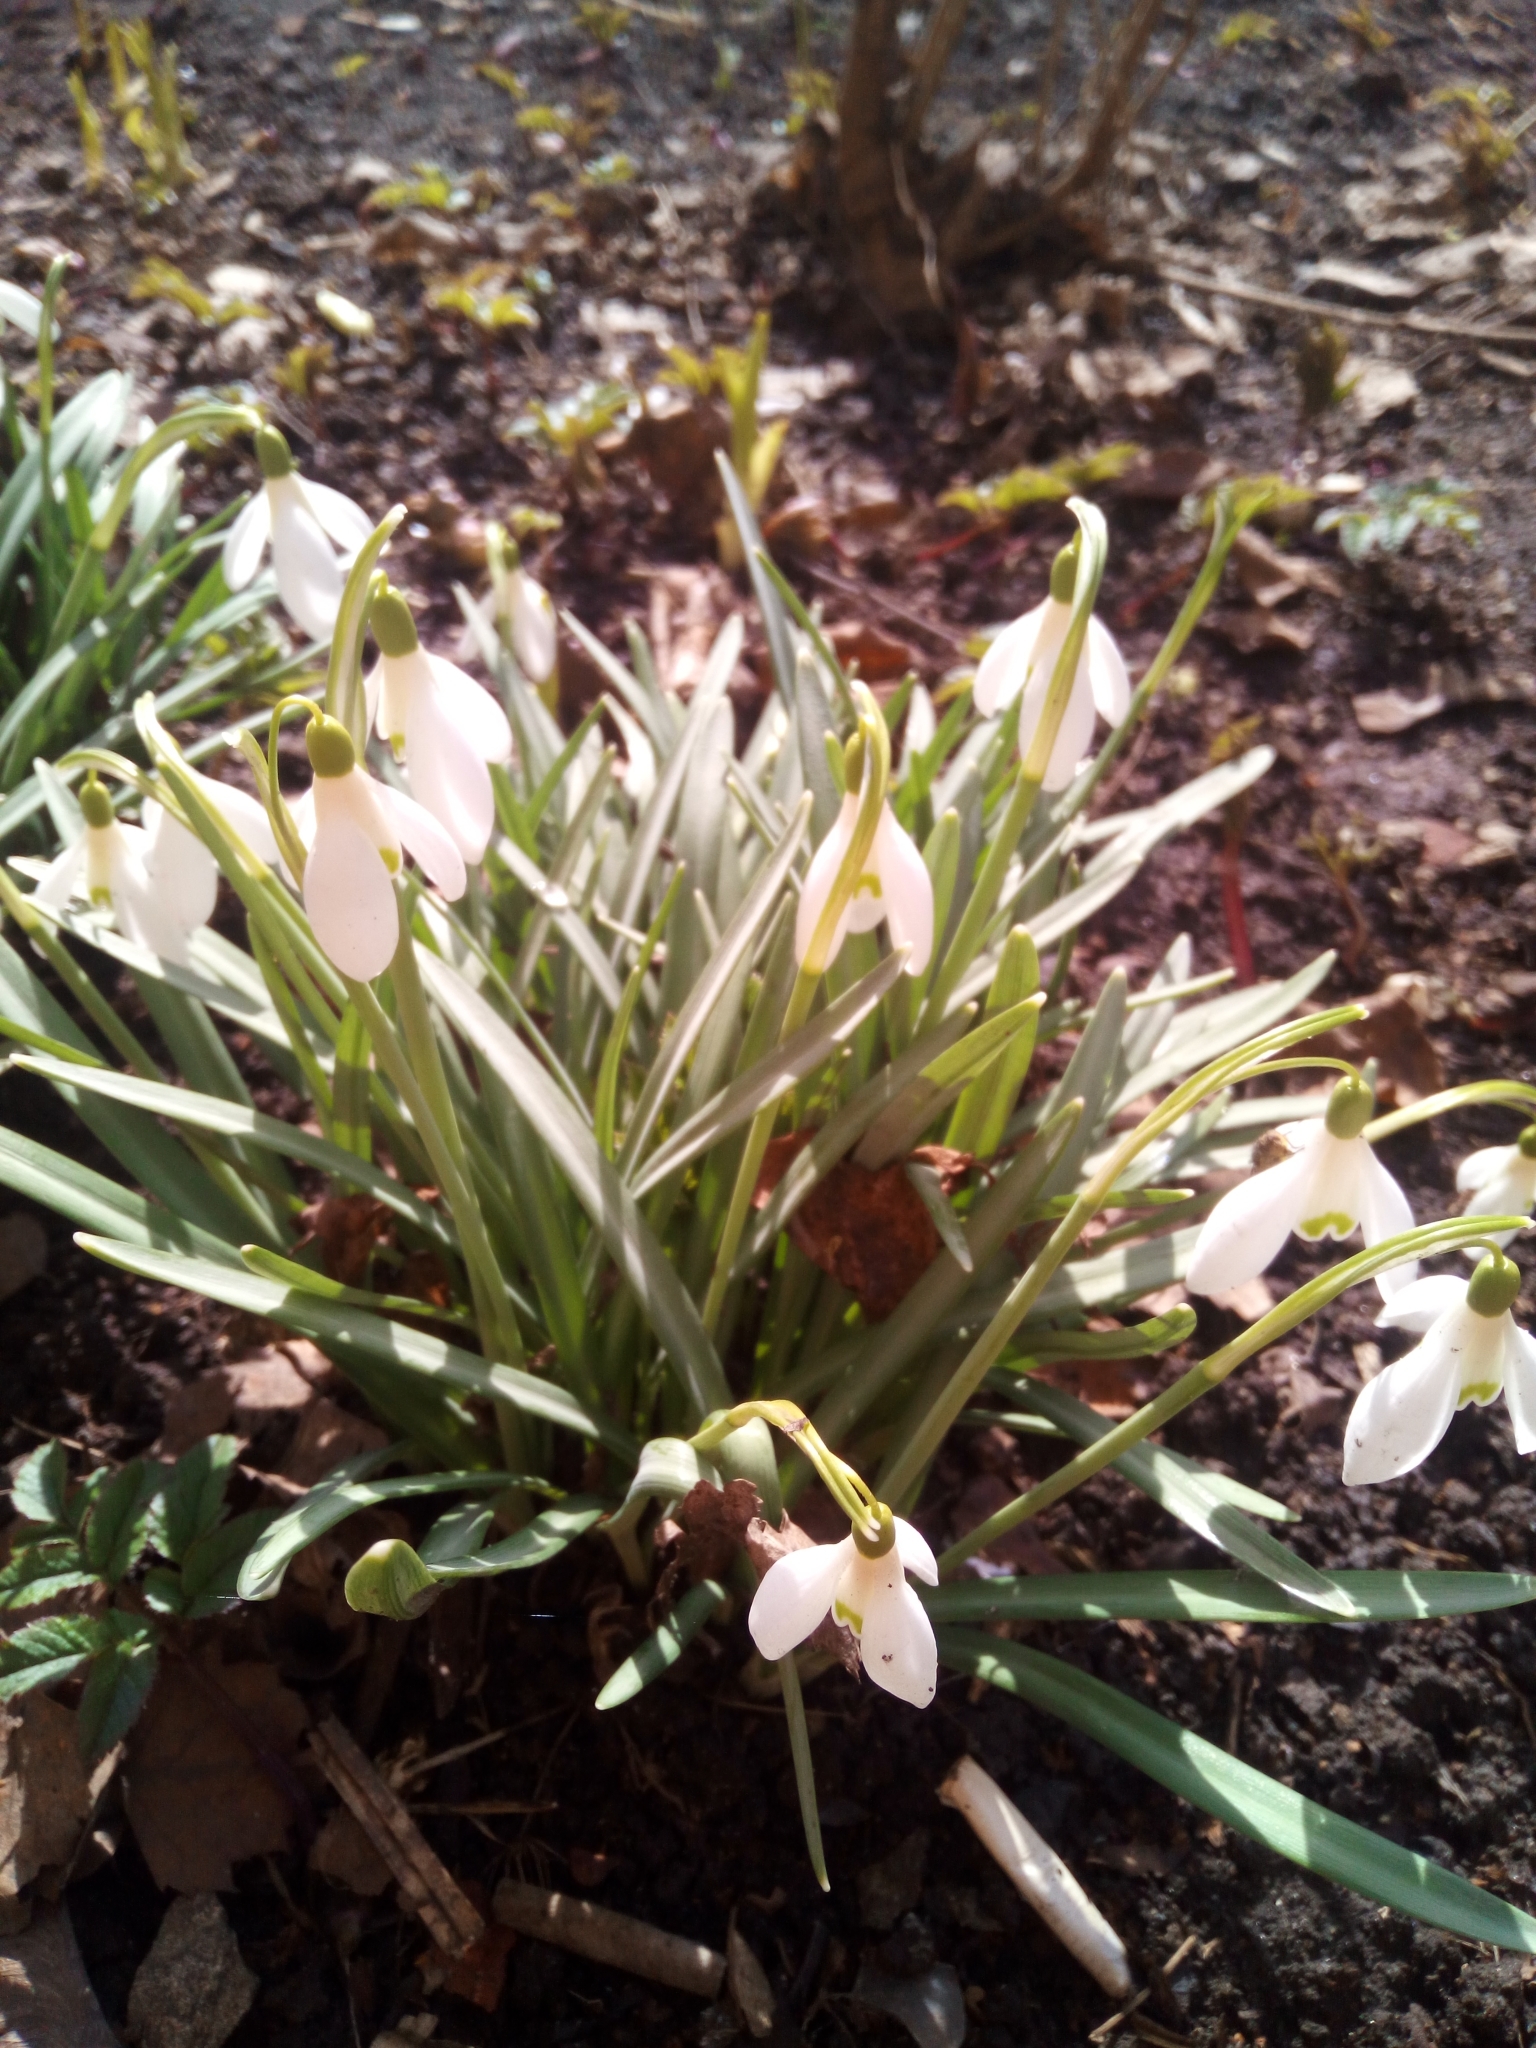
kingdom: Plantae
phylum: Tracheophyta
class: Liliopsida
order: Asparagales
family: Amaryllidaceae
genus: Galanthus
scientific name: Galanthus nivalis
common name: Snowdrop
